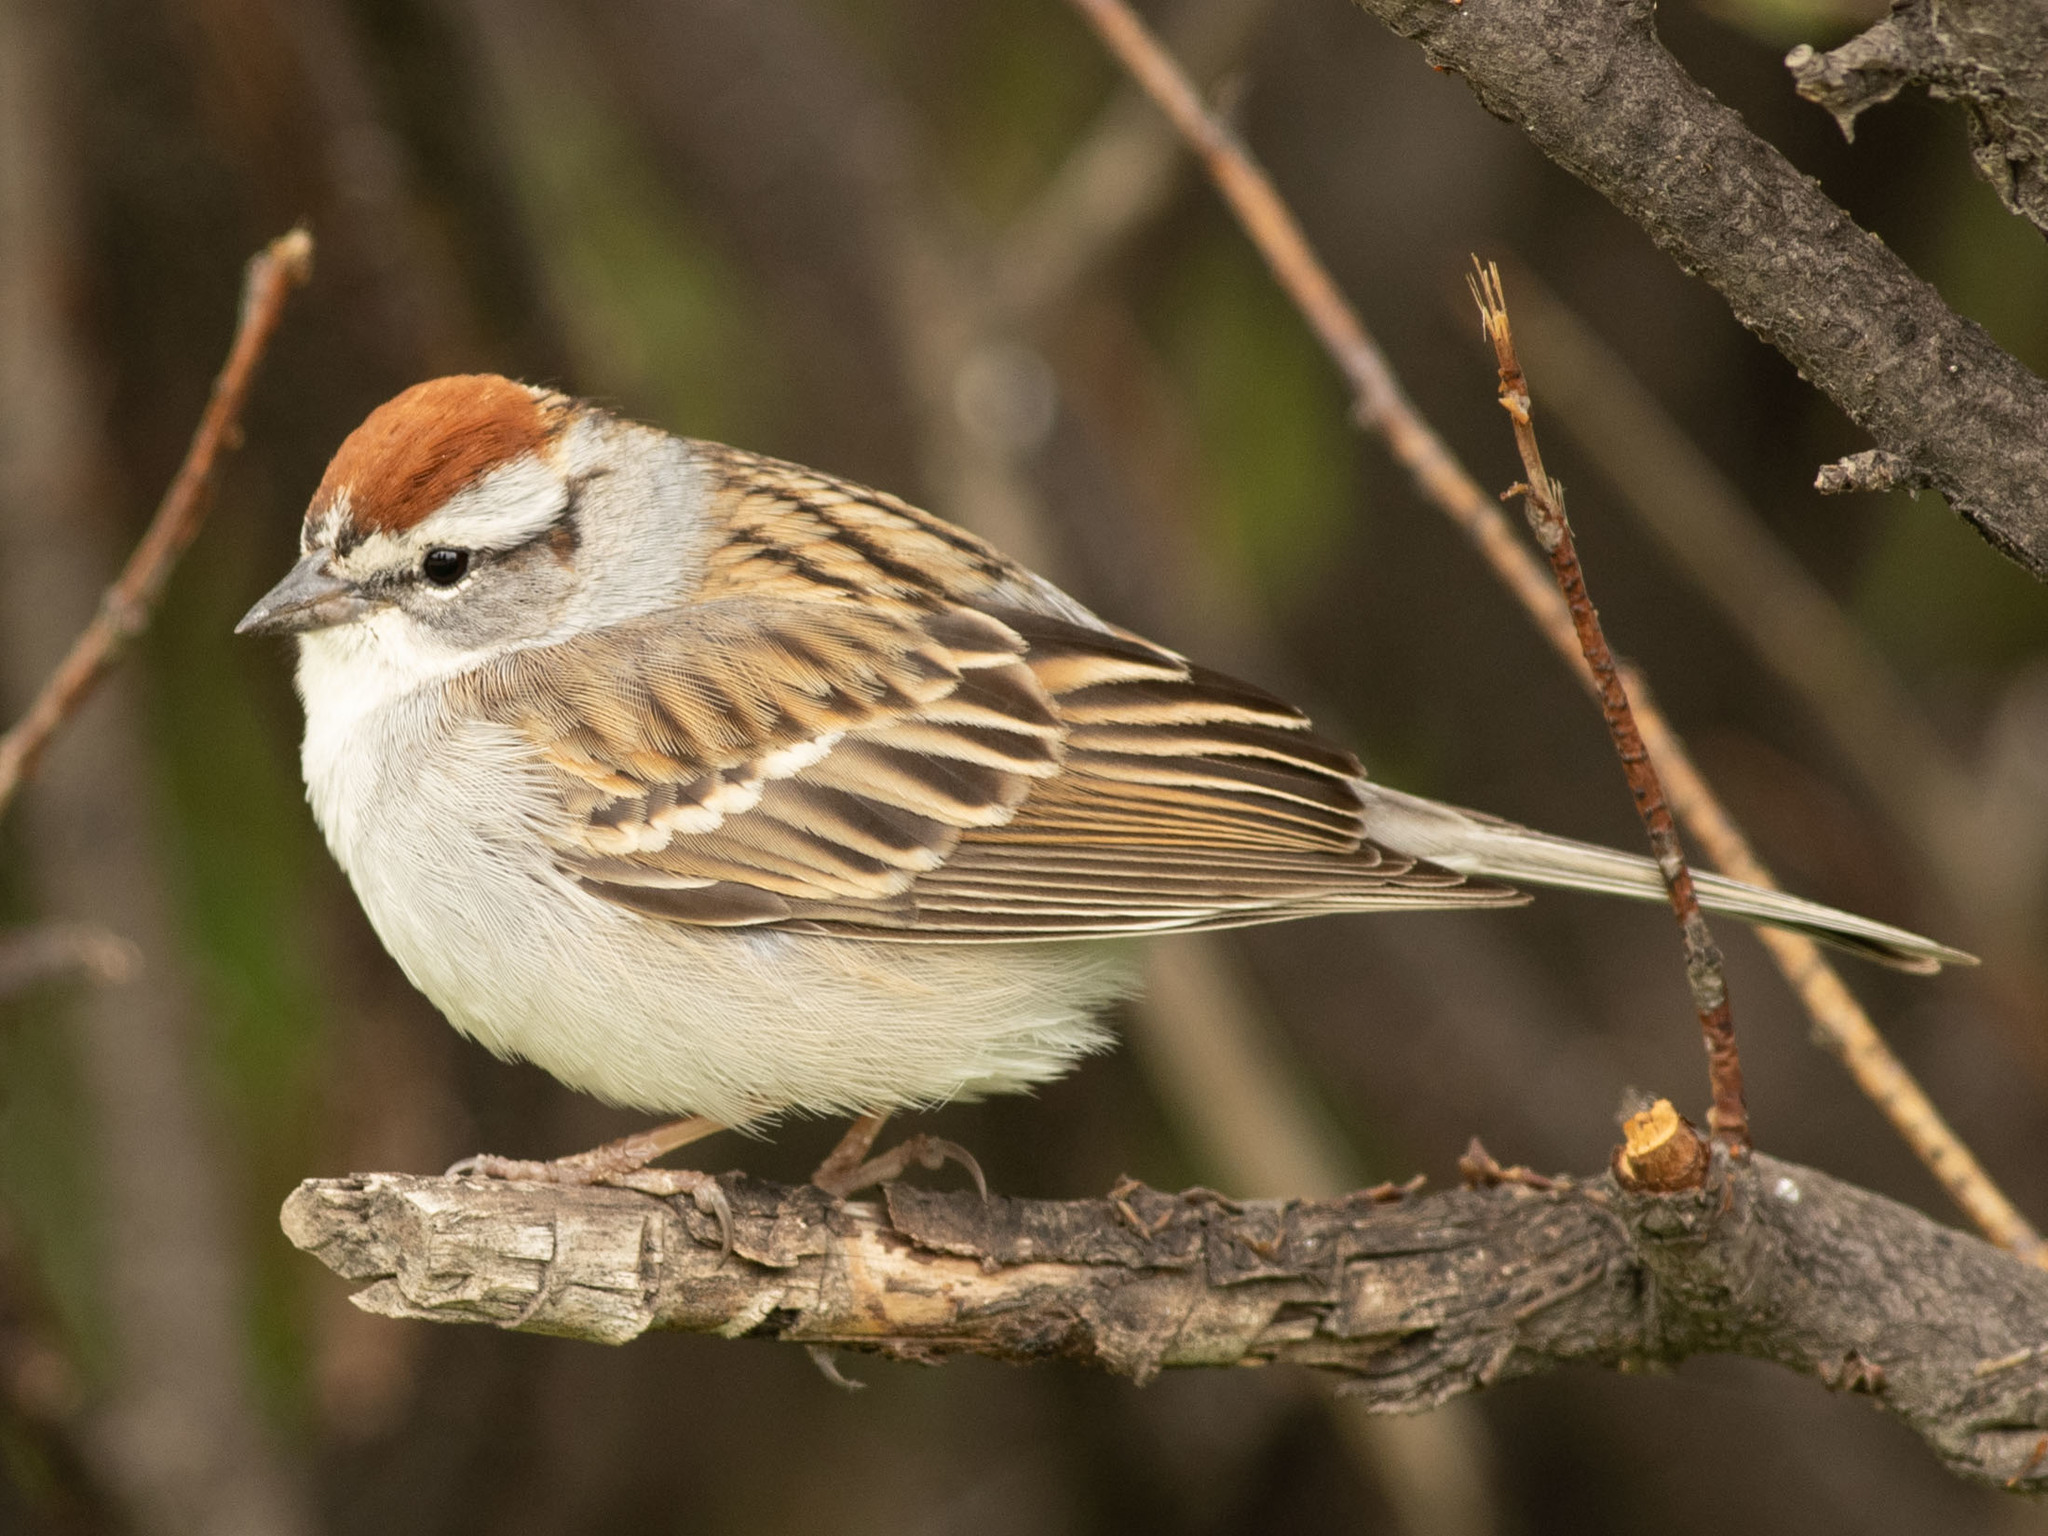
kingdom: Animalia
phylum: Chordata
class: Aves
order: Passeriformes
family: Passerellidae
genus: Spizella
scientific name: Spizella passerina
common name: Chipping sparrow
